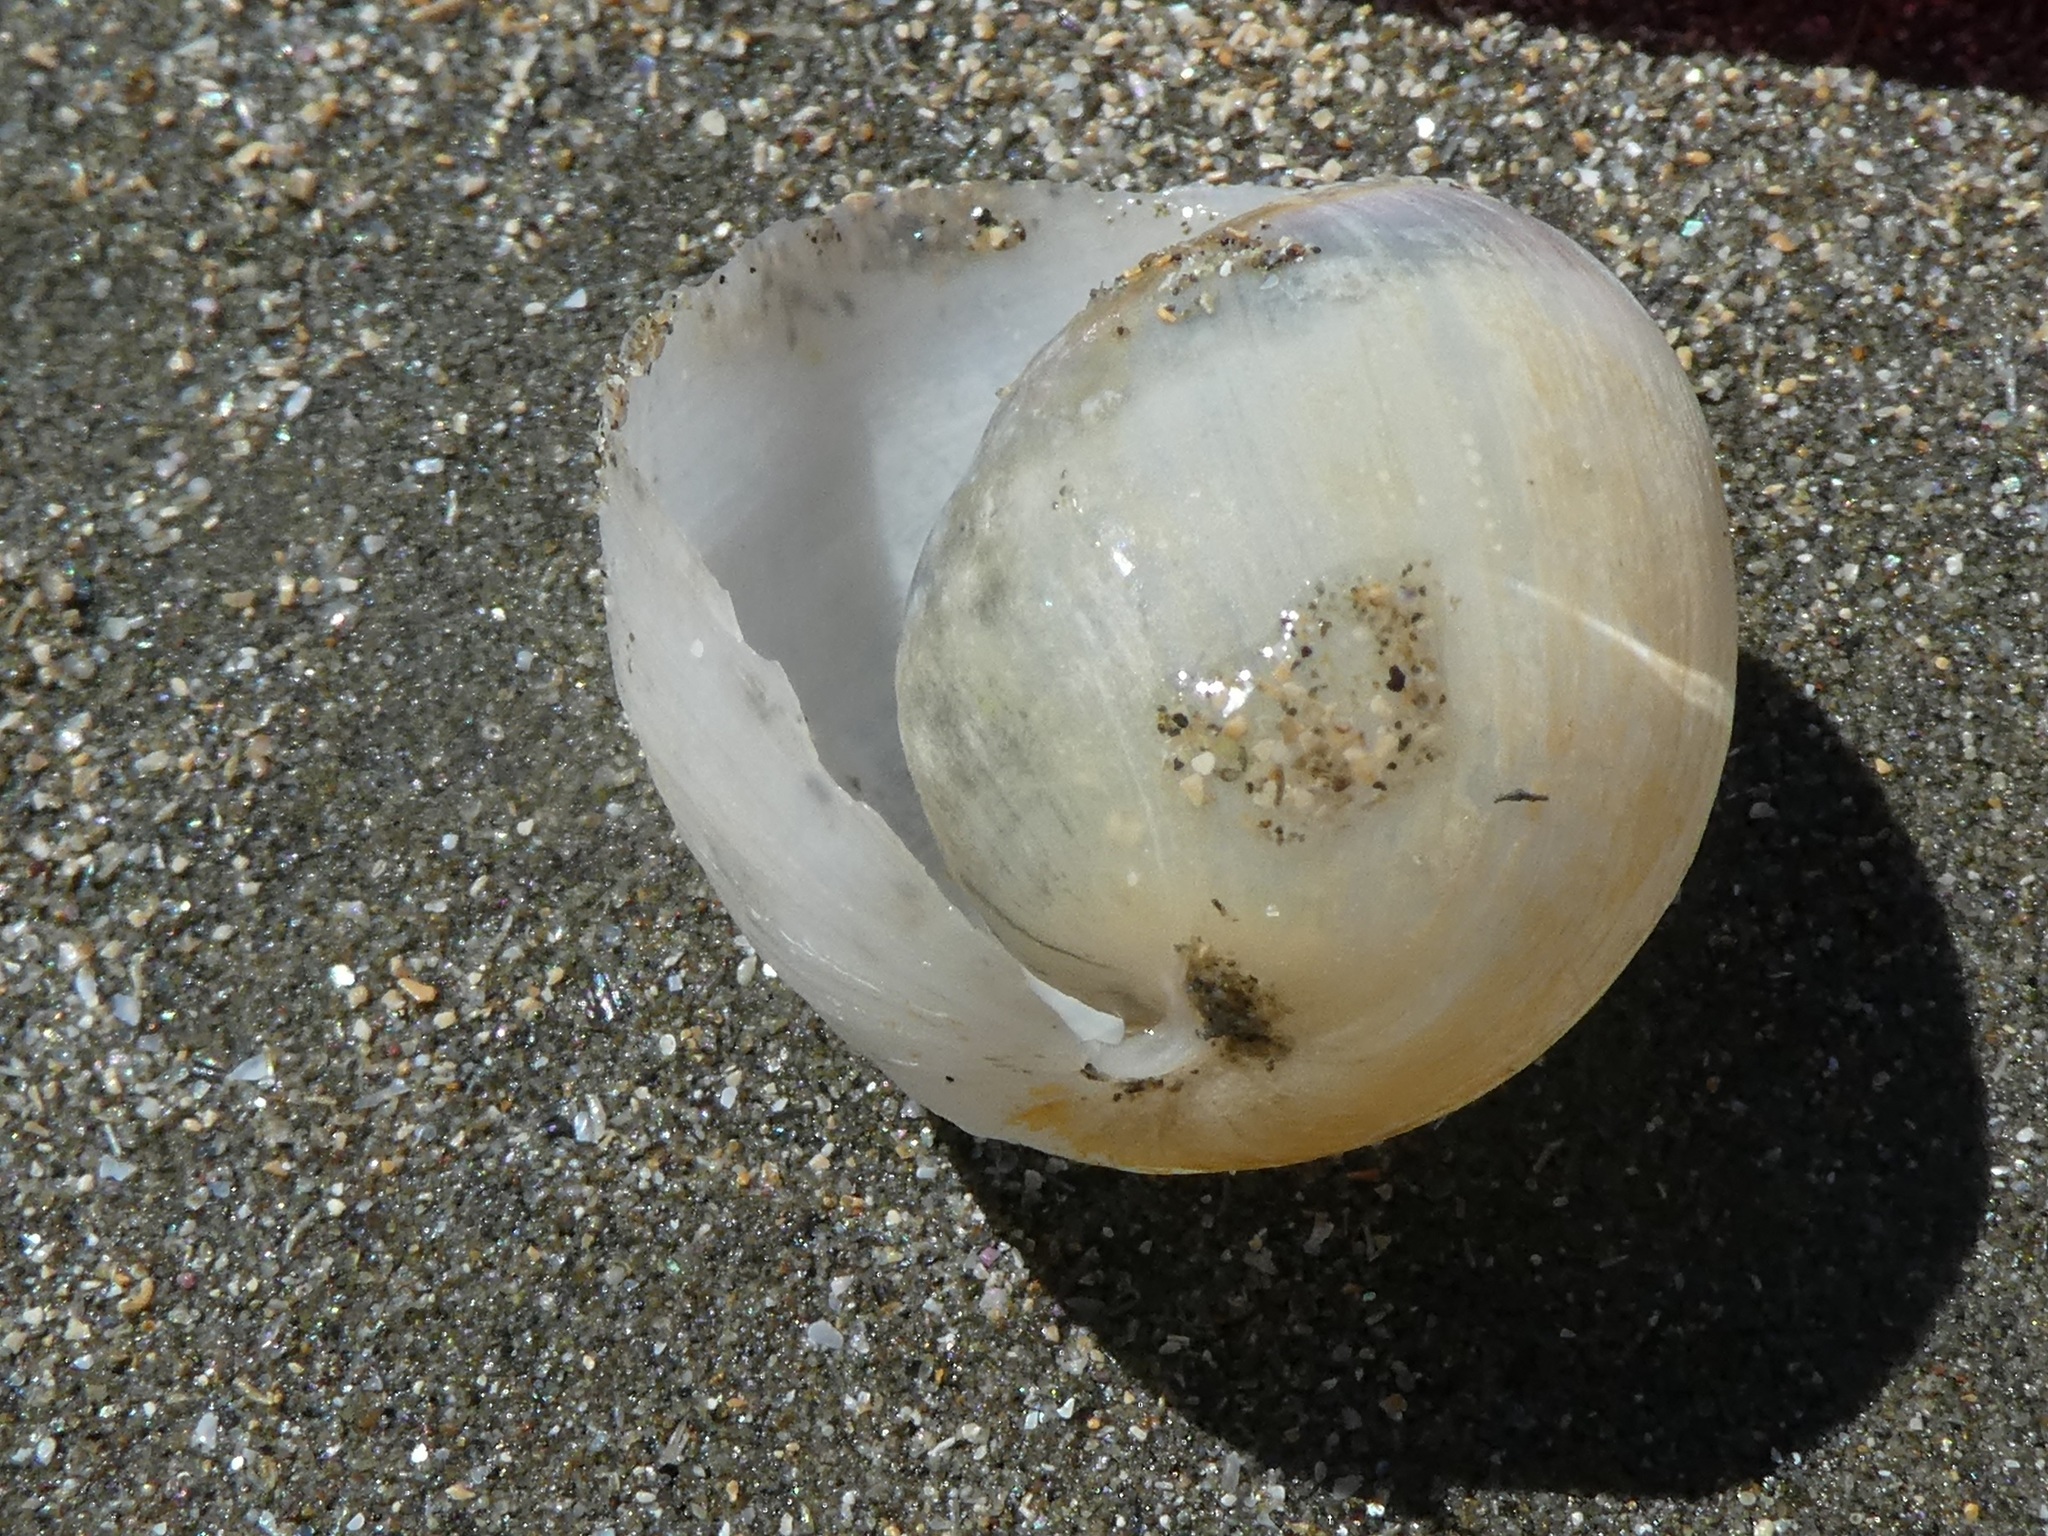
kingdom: Animalia
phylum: Mollusca
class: Gastropoda
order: Cephalaspidea
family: Haminoeidae
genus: Papawera
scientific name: Papawera zelandiae
